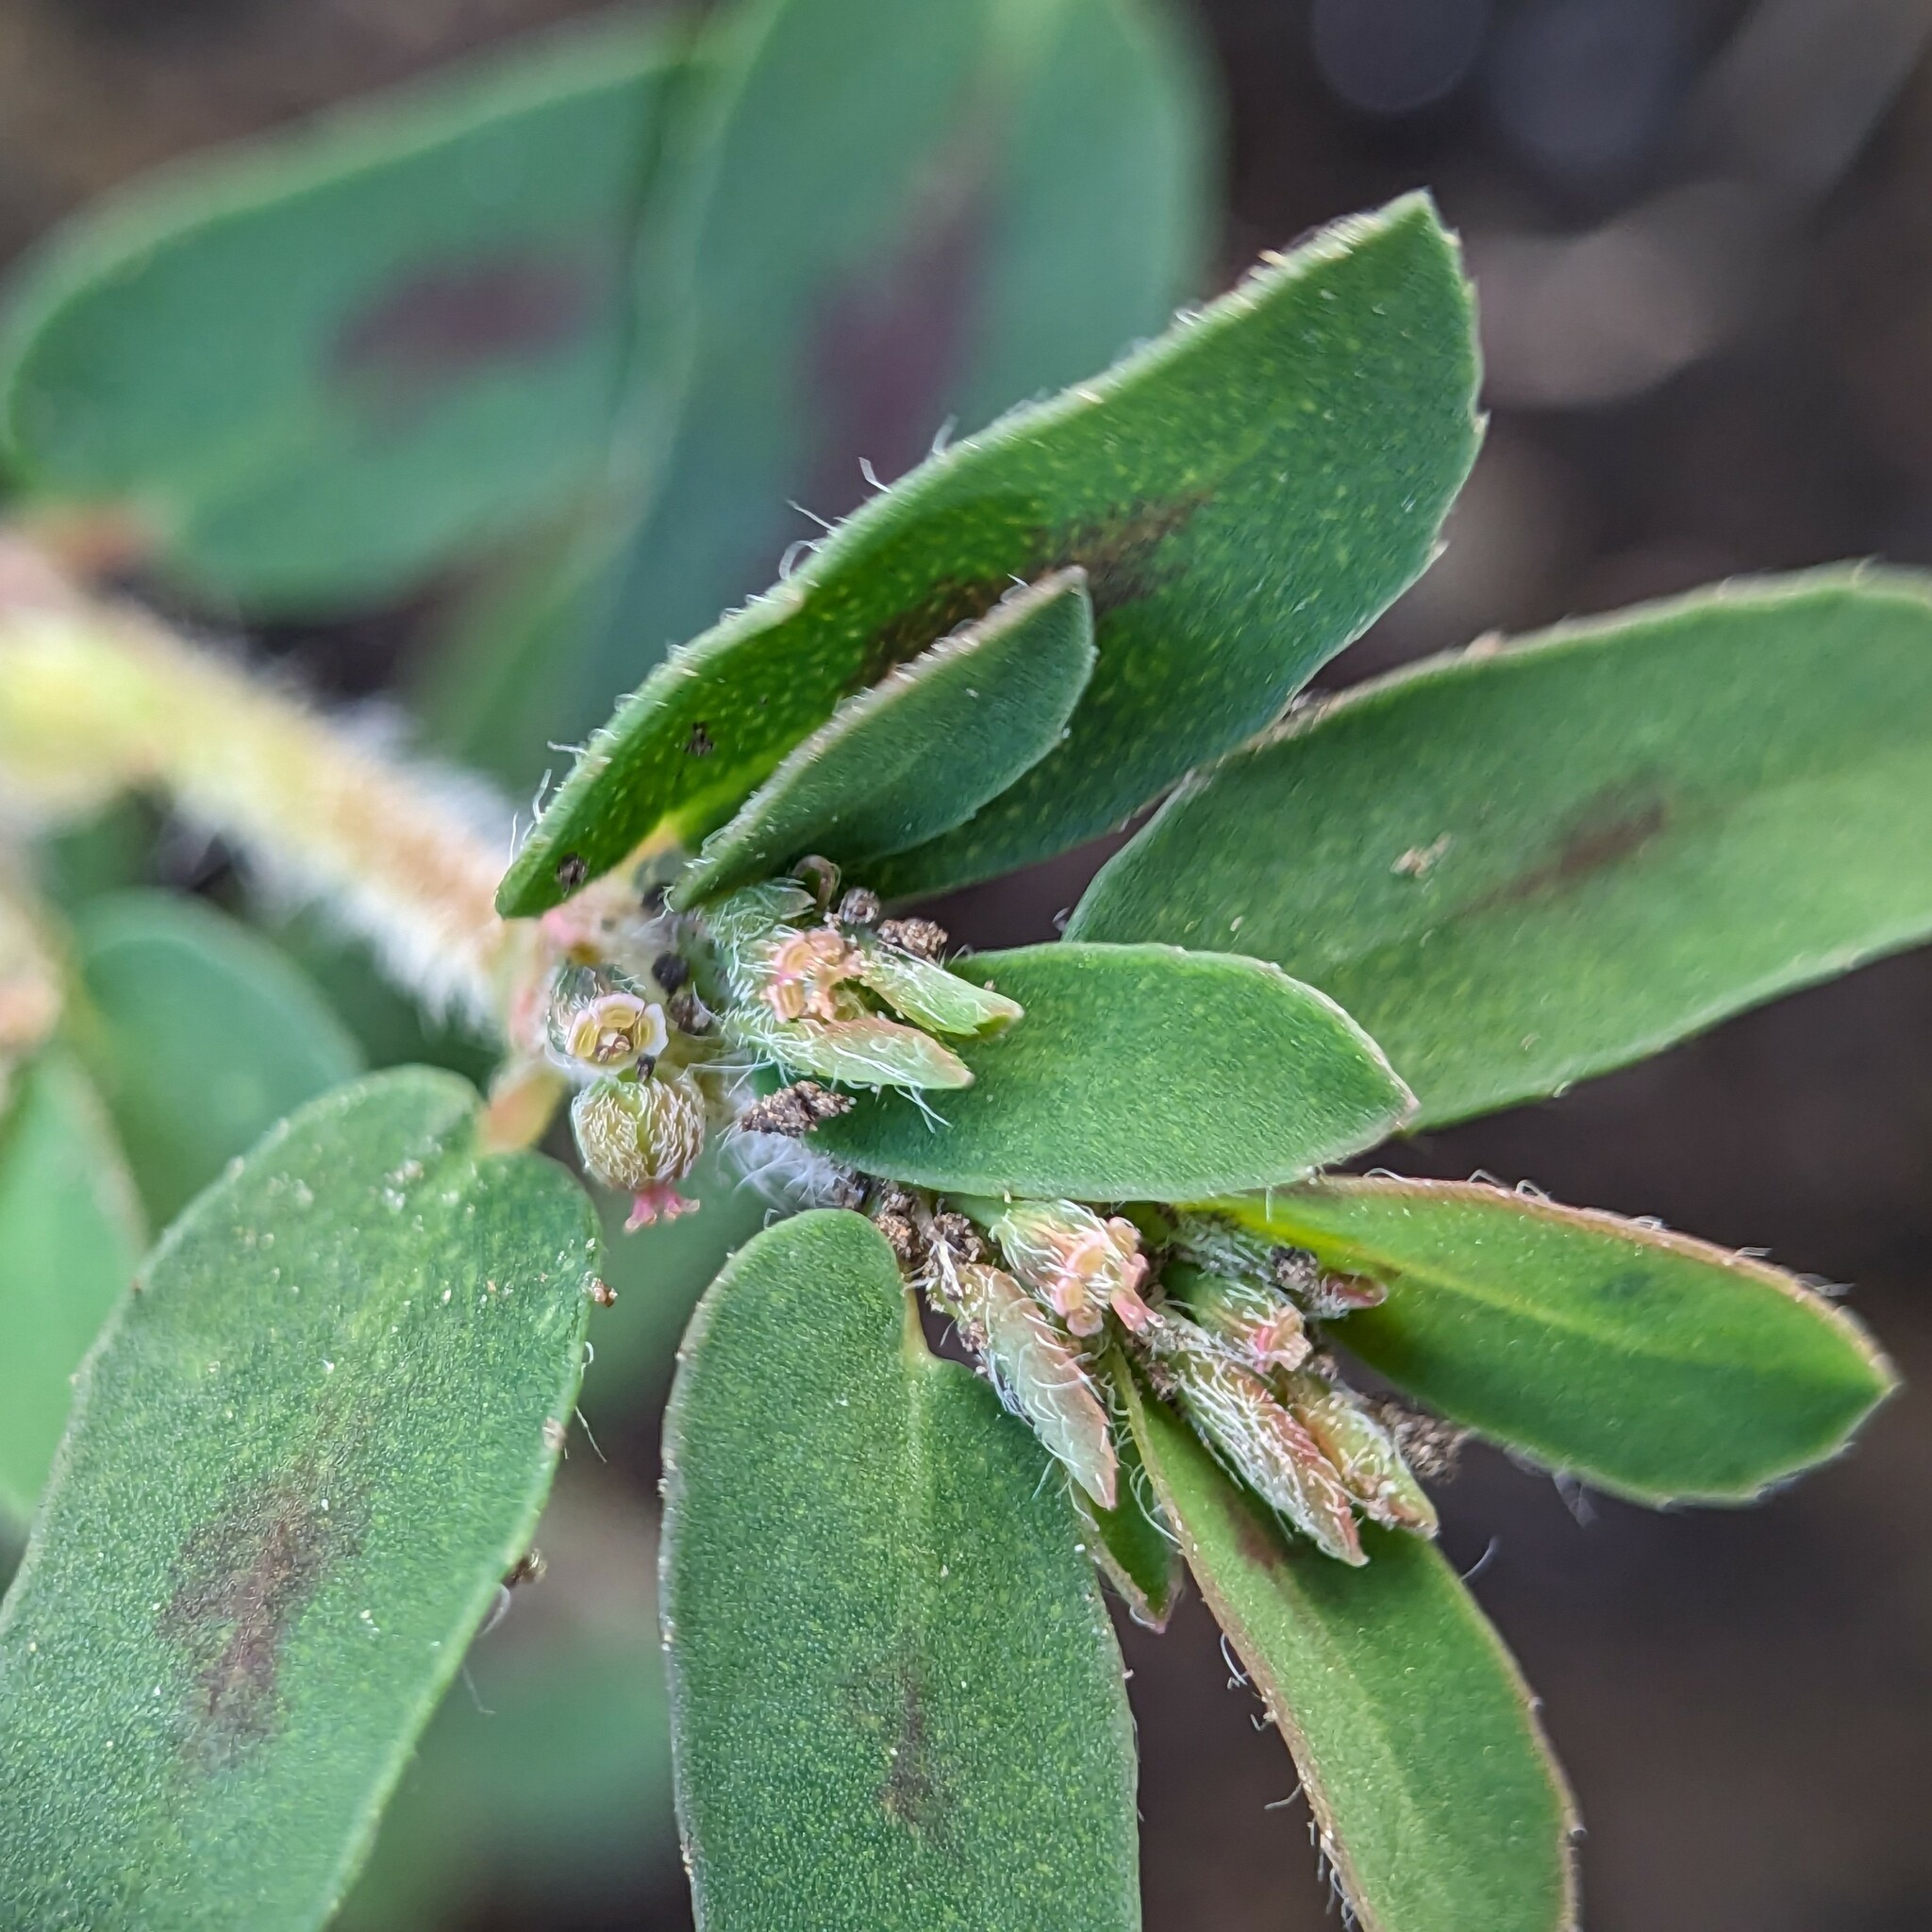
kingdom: Plantae
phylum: Tracheophyta
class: Magnoliopsida
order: Malpighiales
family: Euphorbiaceae
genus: Euphorbia
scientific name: Euphorbia maculata
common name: Spotted spurge
